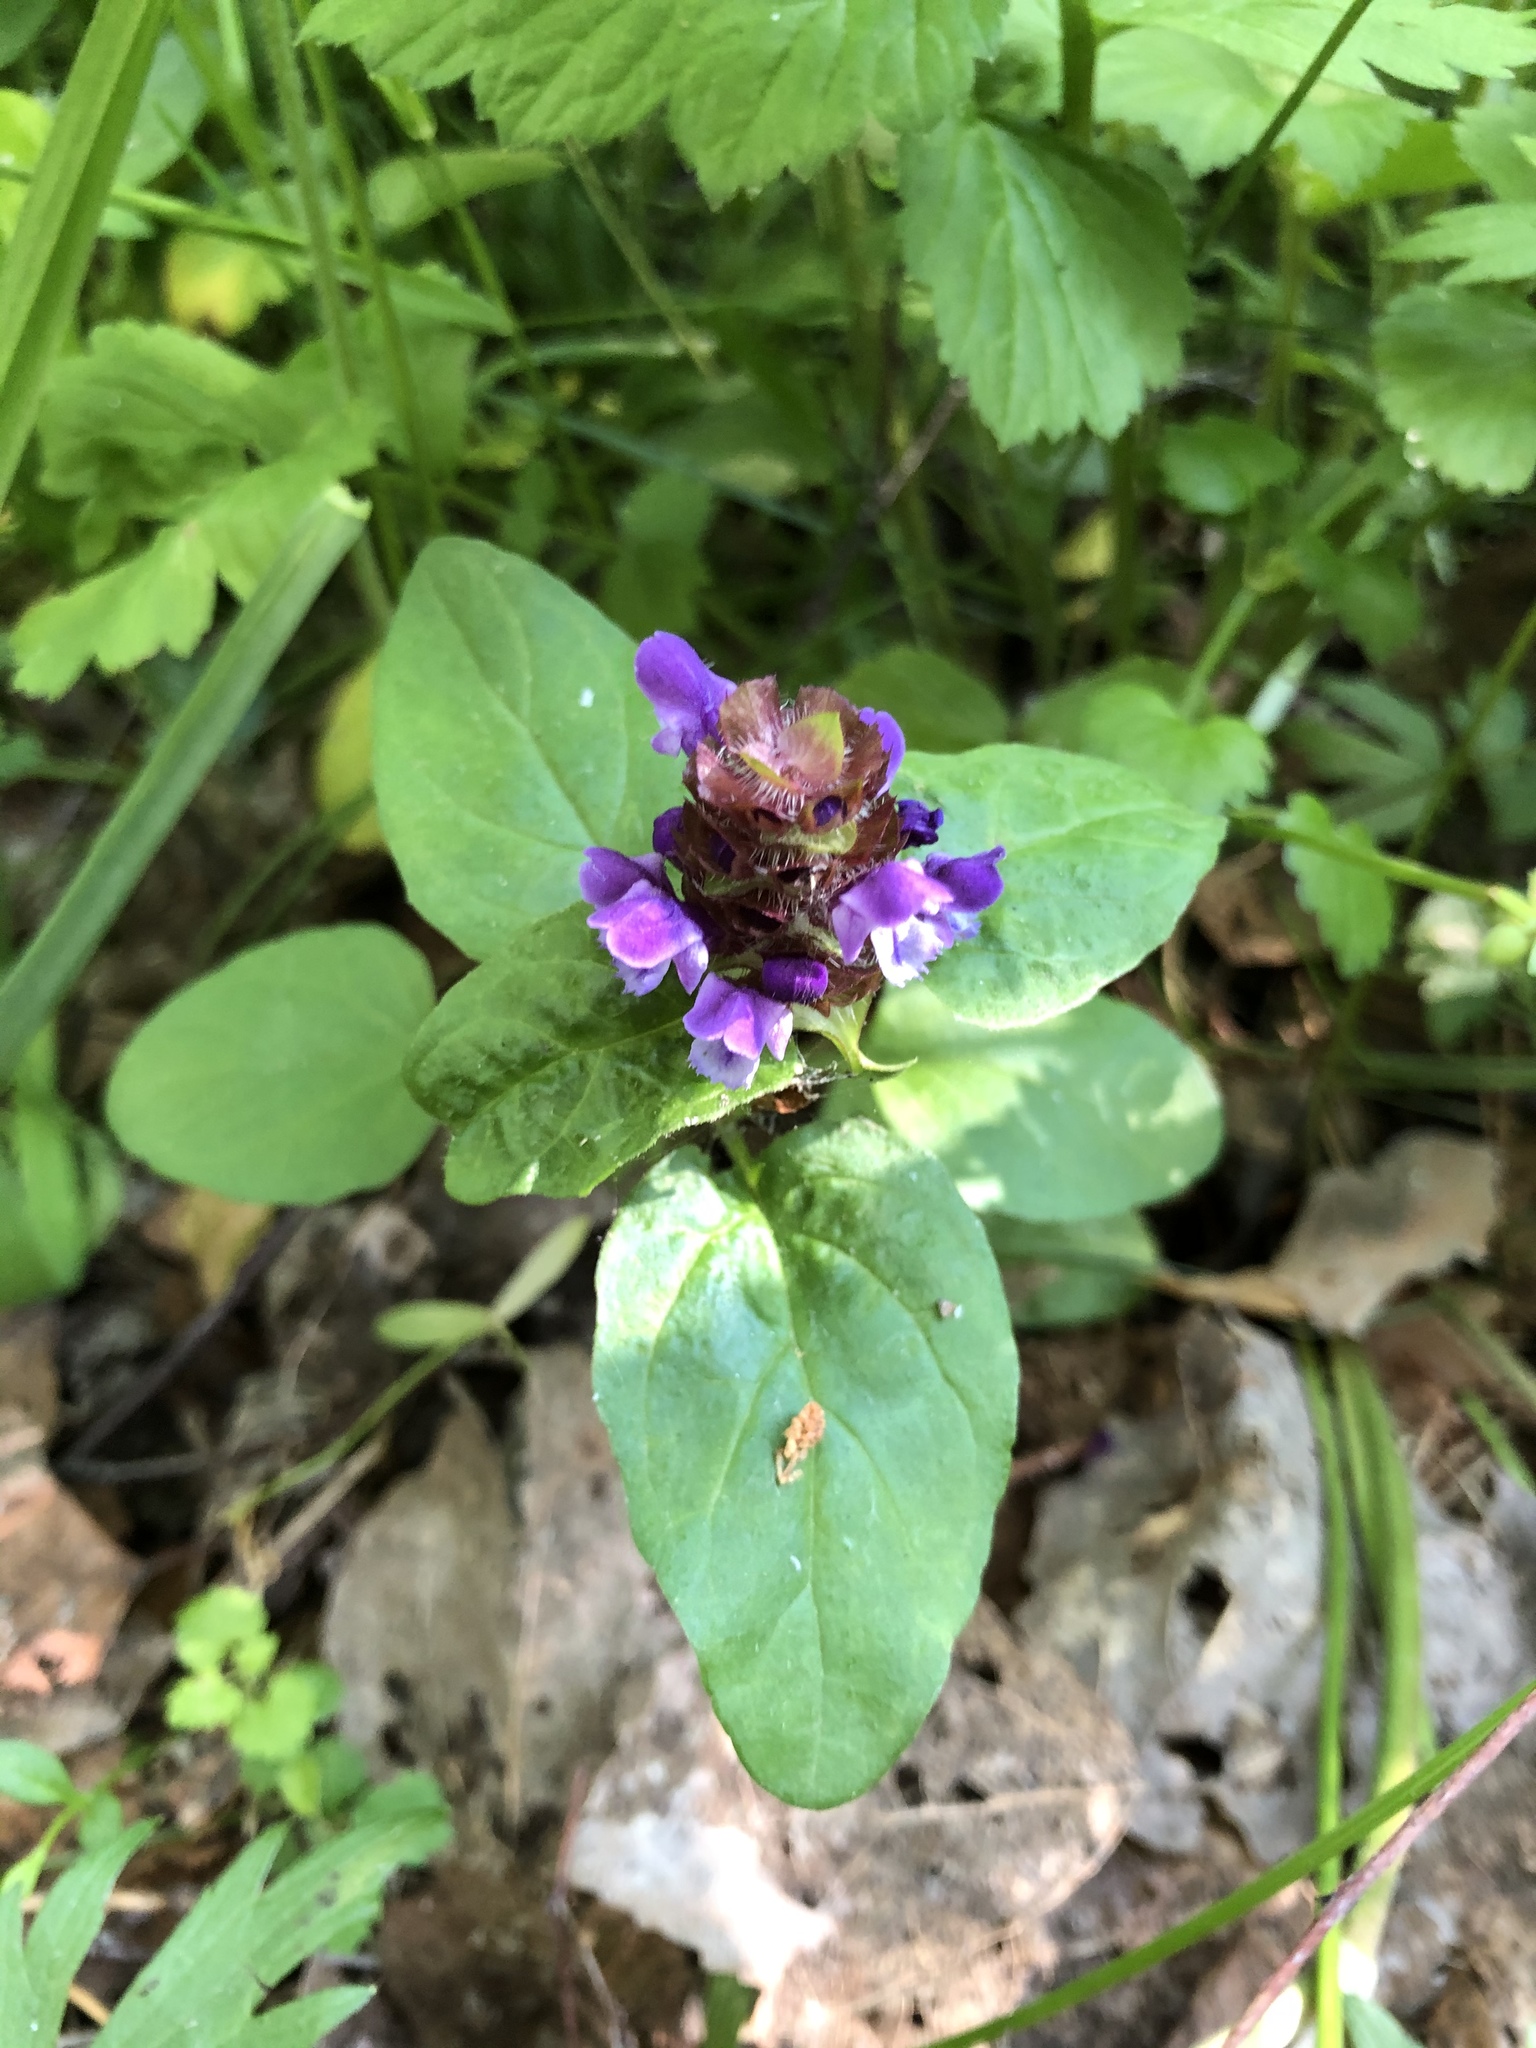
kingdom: Plantae
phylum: Tracheophyta
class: Magnoliopsida
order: Lamiales
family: Lamiaceae
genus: Prunella
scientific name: Prunella vulgaris
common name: Heal-all
